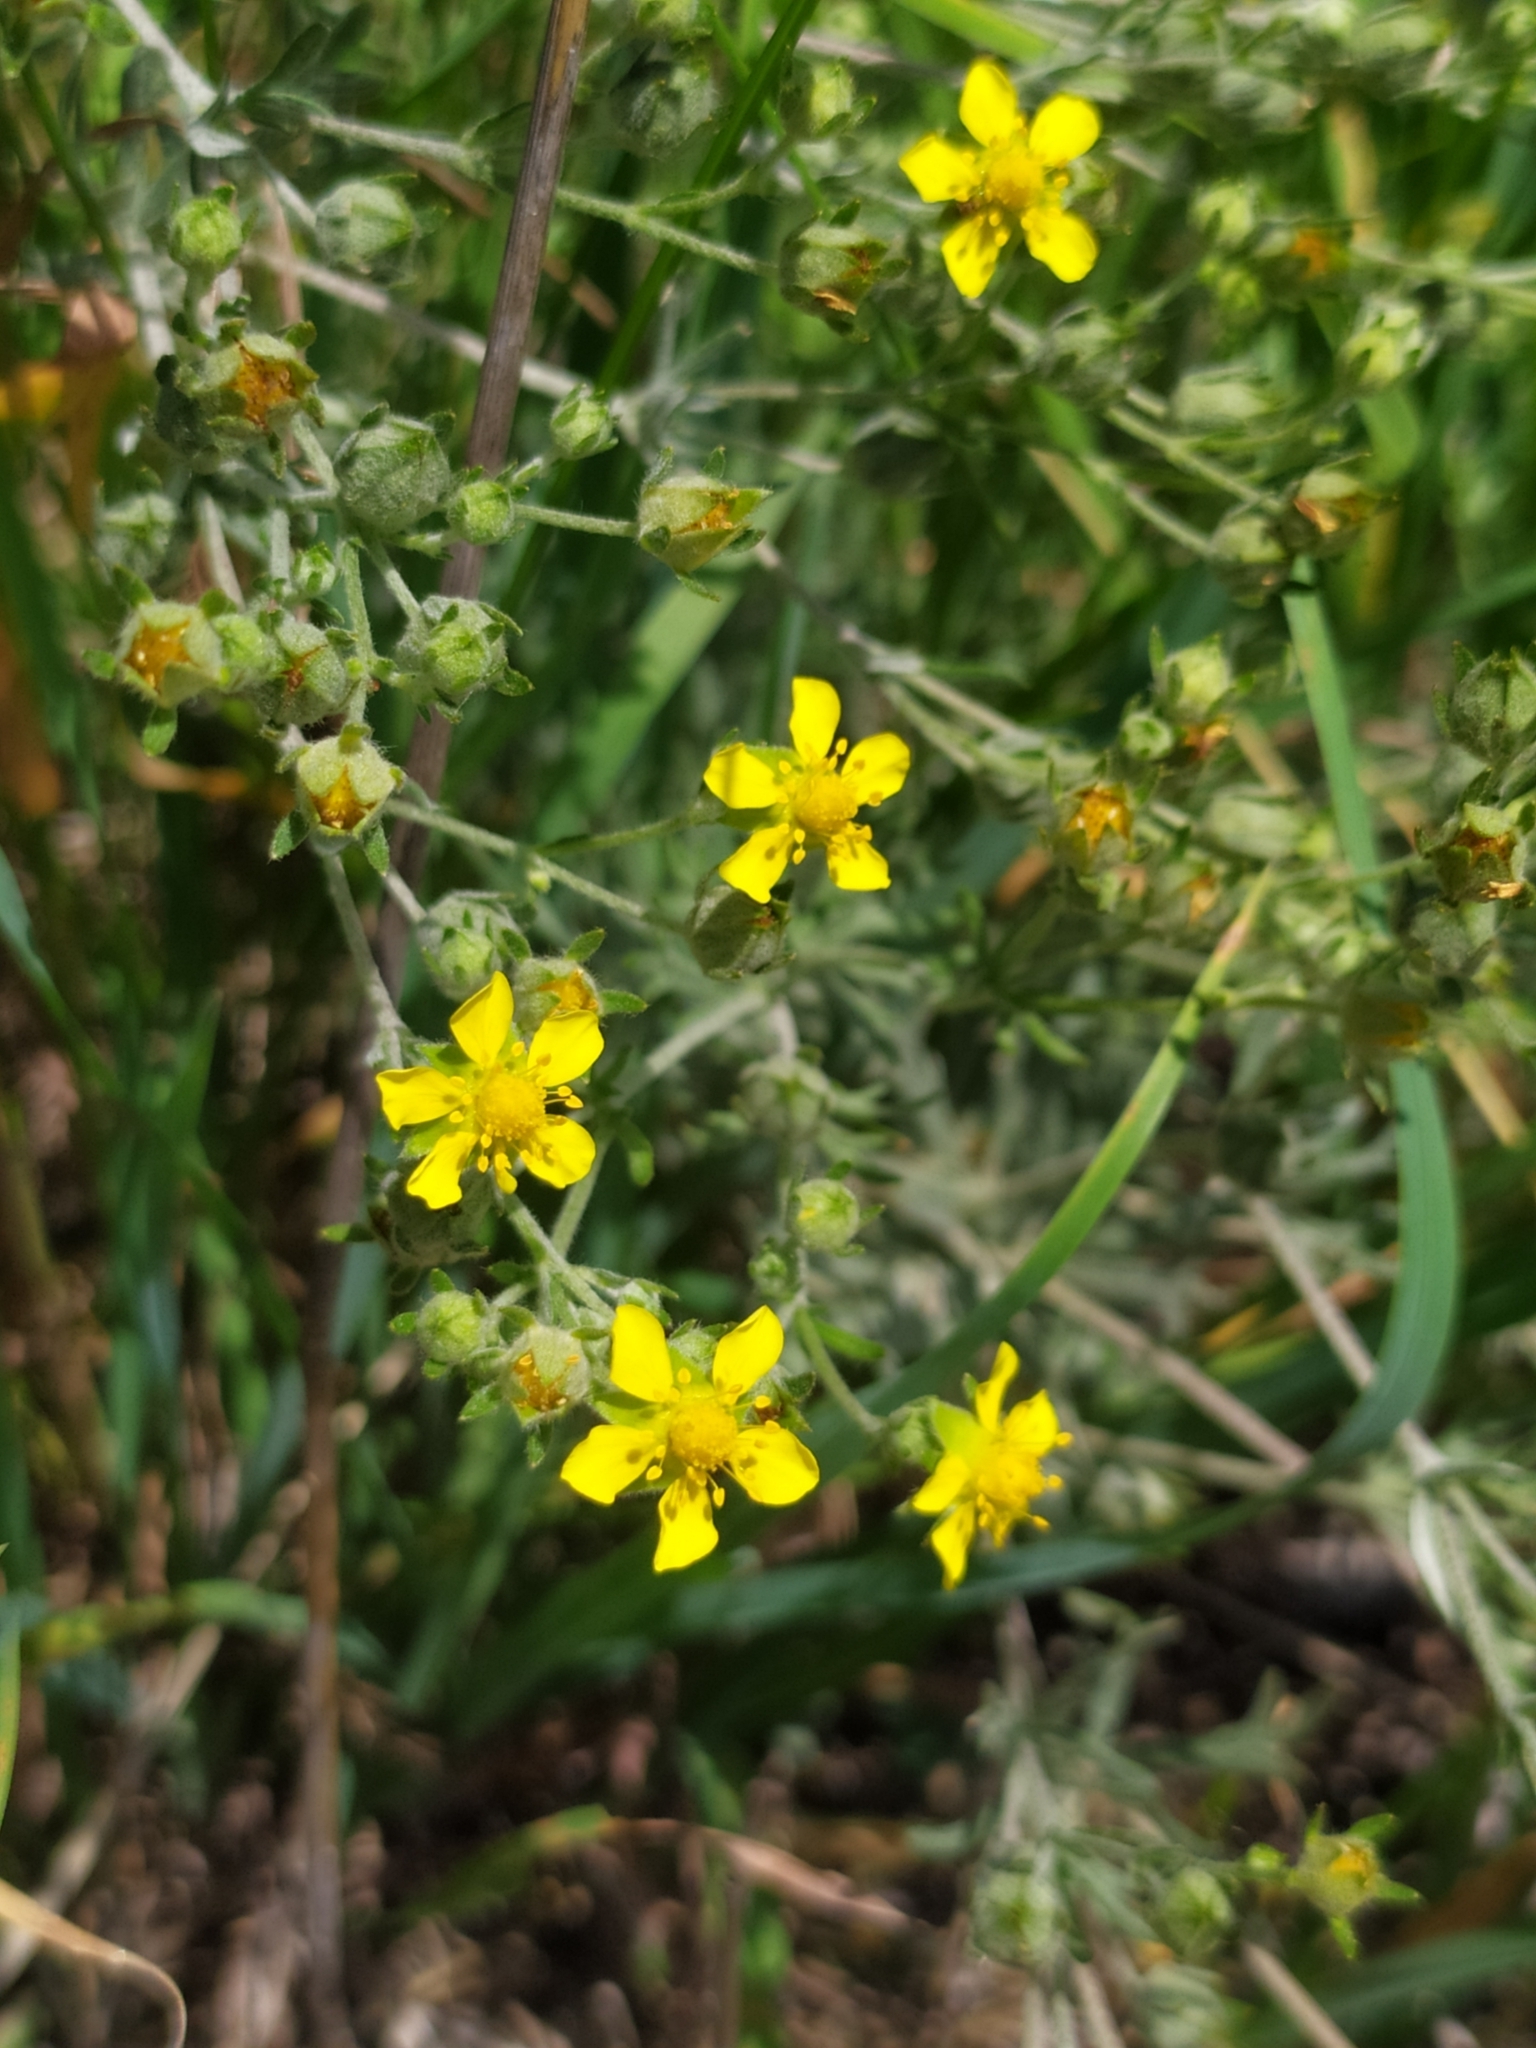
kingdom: Plantae
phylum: Tracheophyta
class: Magnoliopsida
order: Rosales
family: Rosaceae
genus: Potentilla
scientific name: Potentilla argentea
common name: Hoary cinquefoil
